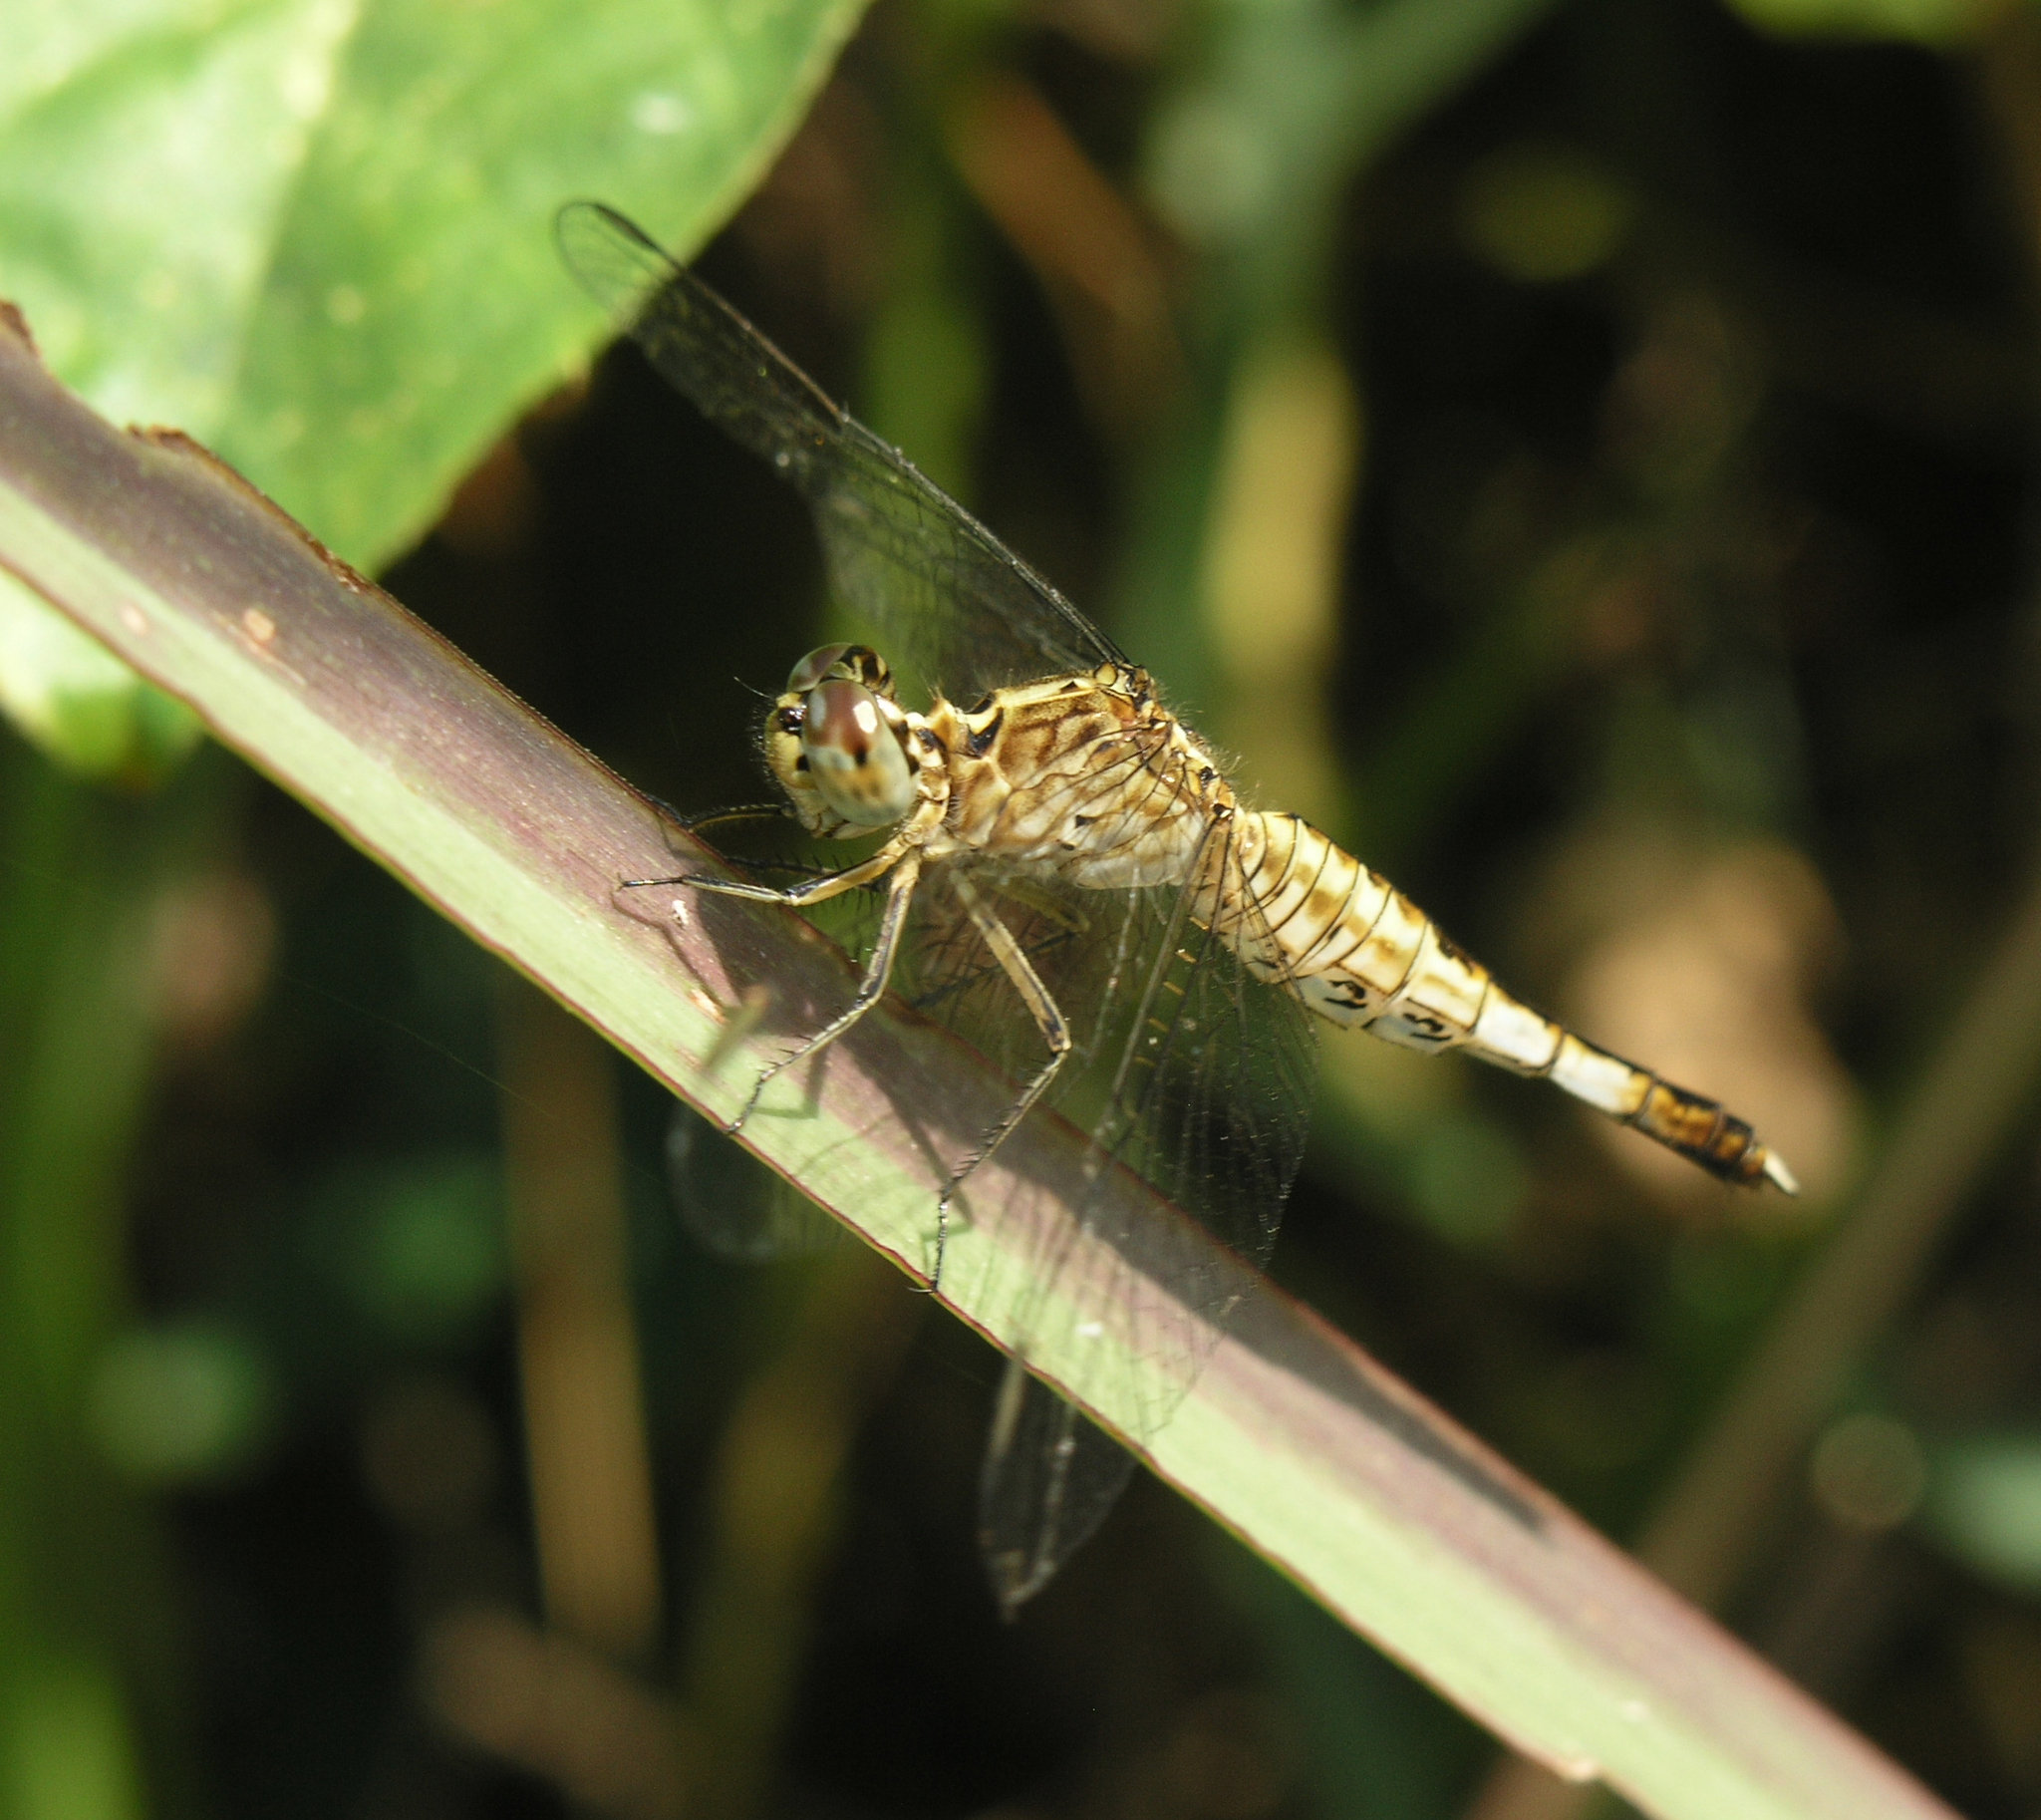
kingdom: Animalia
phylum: Arthropoda
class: Insecta
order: Odonata
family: Libellulidae
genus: Acisoma
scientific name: Acisoma panorpoides
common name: Asian pintail
